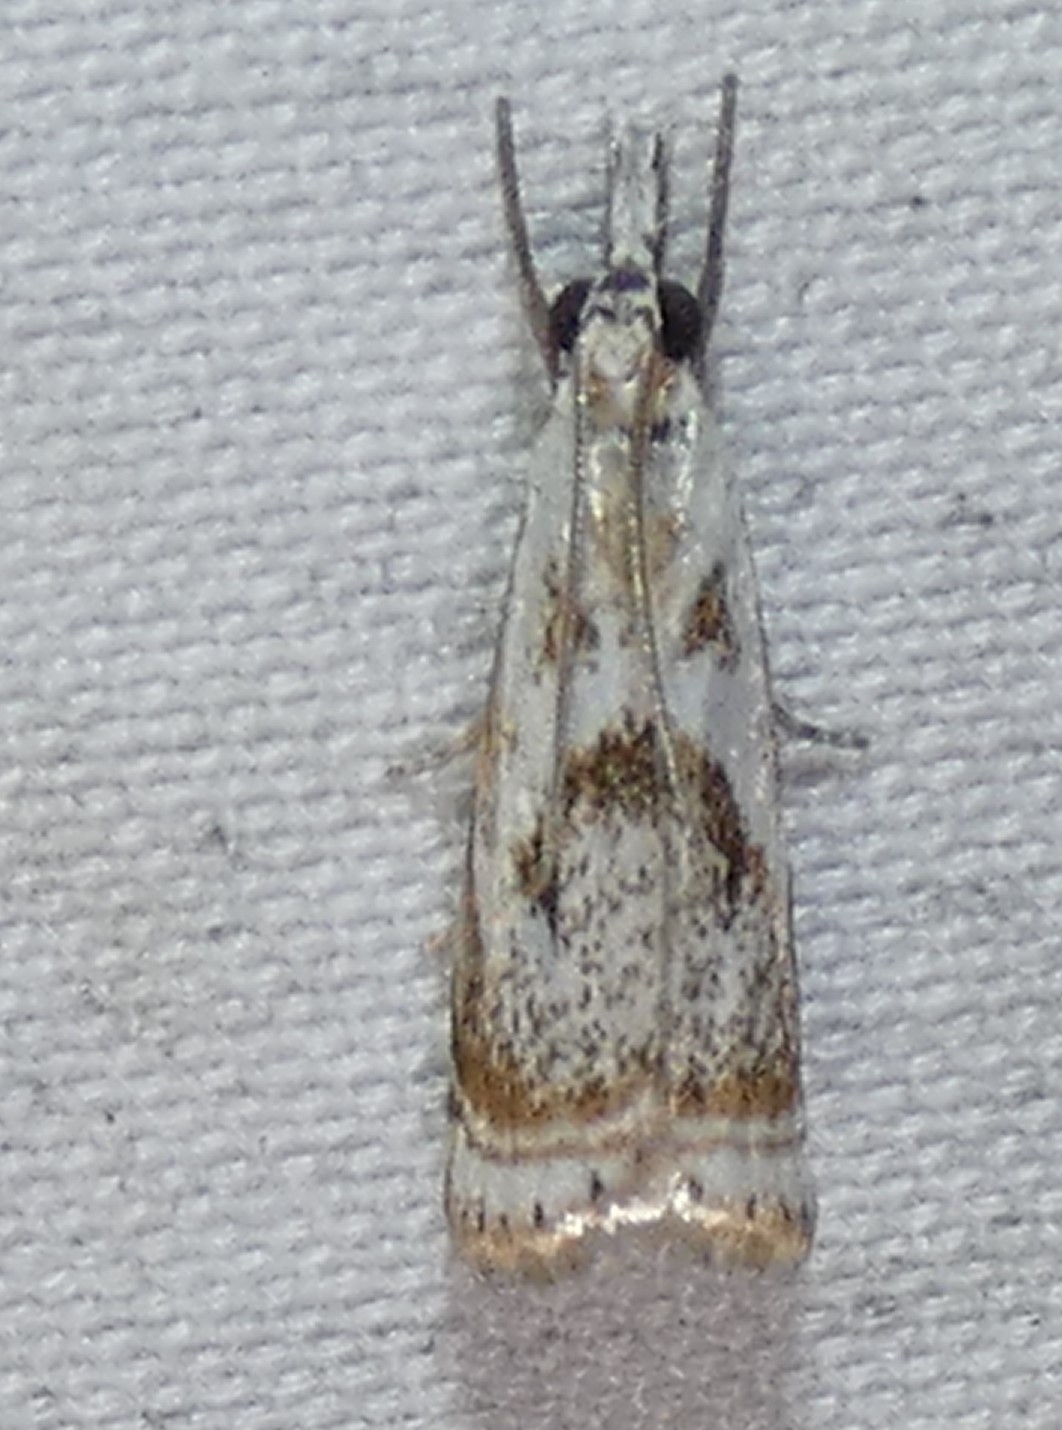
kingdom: Animalia
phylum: Arthropoda
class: Insecta
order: Lepidoptera
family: Crambidae
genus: Microcrambus
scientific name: Microcrambus elegans
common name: Elegant grass-veneer
